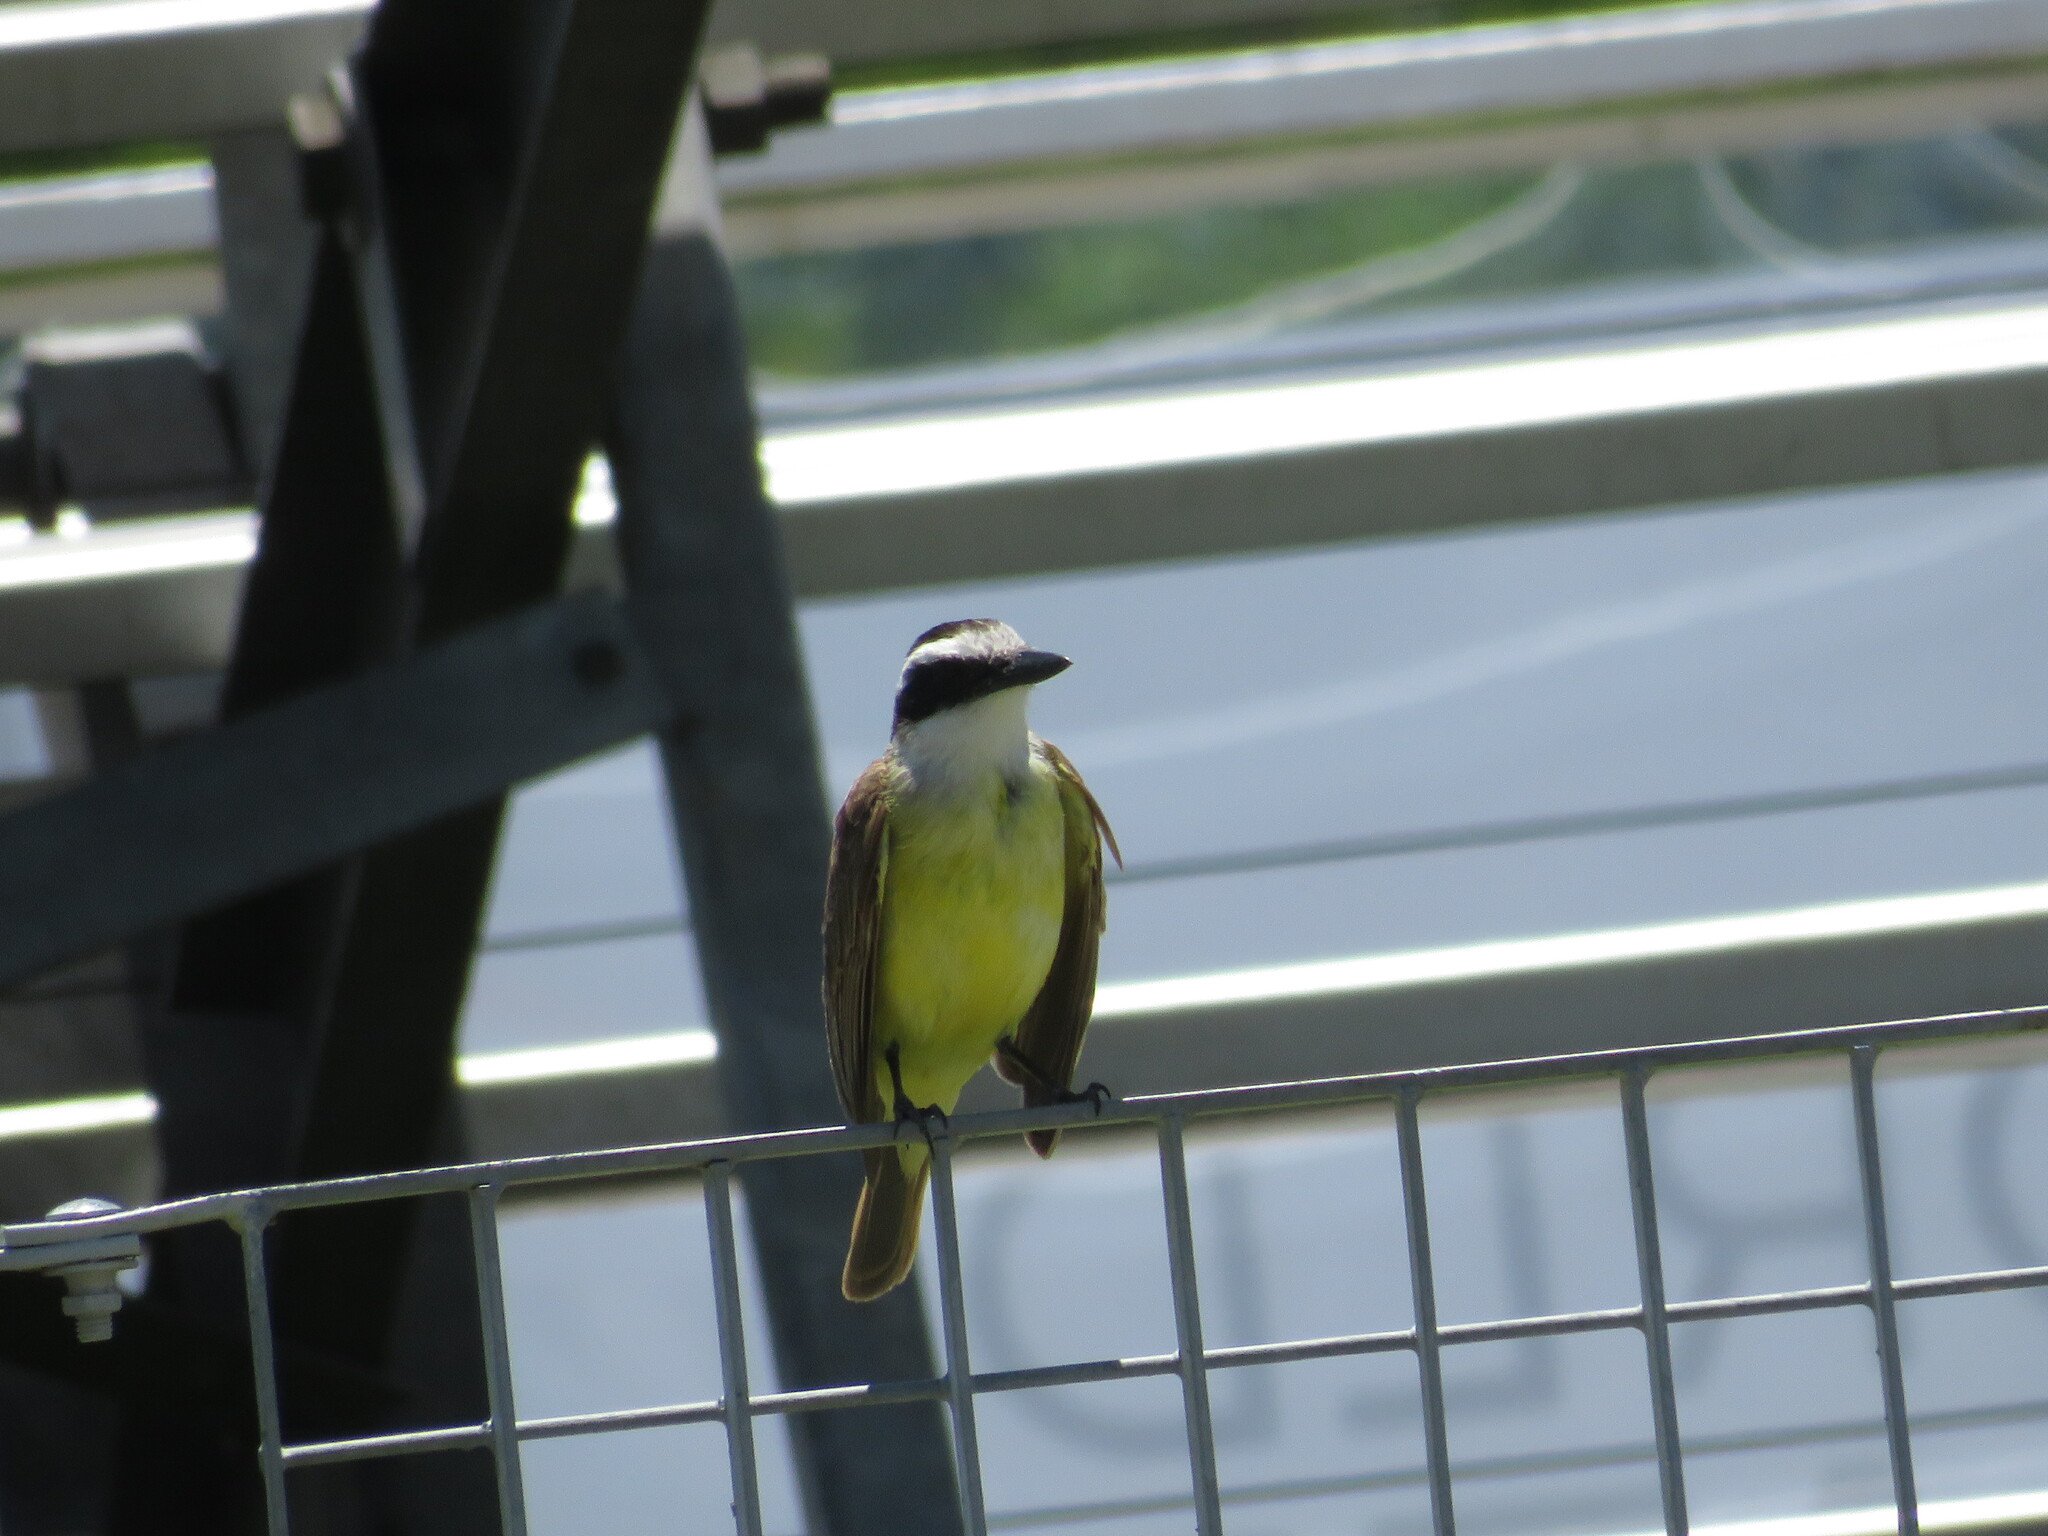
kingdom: Animalia
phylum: Chordata
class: Aves
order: Passeriformes
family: Tyrannidae
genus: Pitangus
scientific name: Pitangus sulphuratus
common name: Great kiskadee
